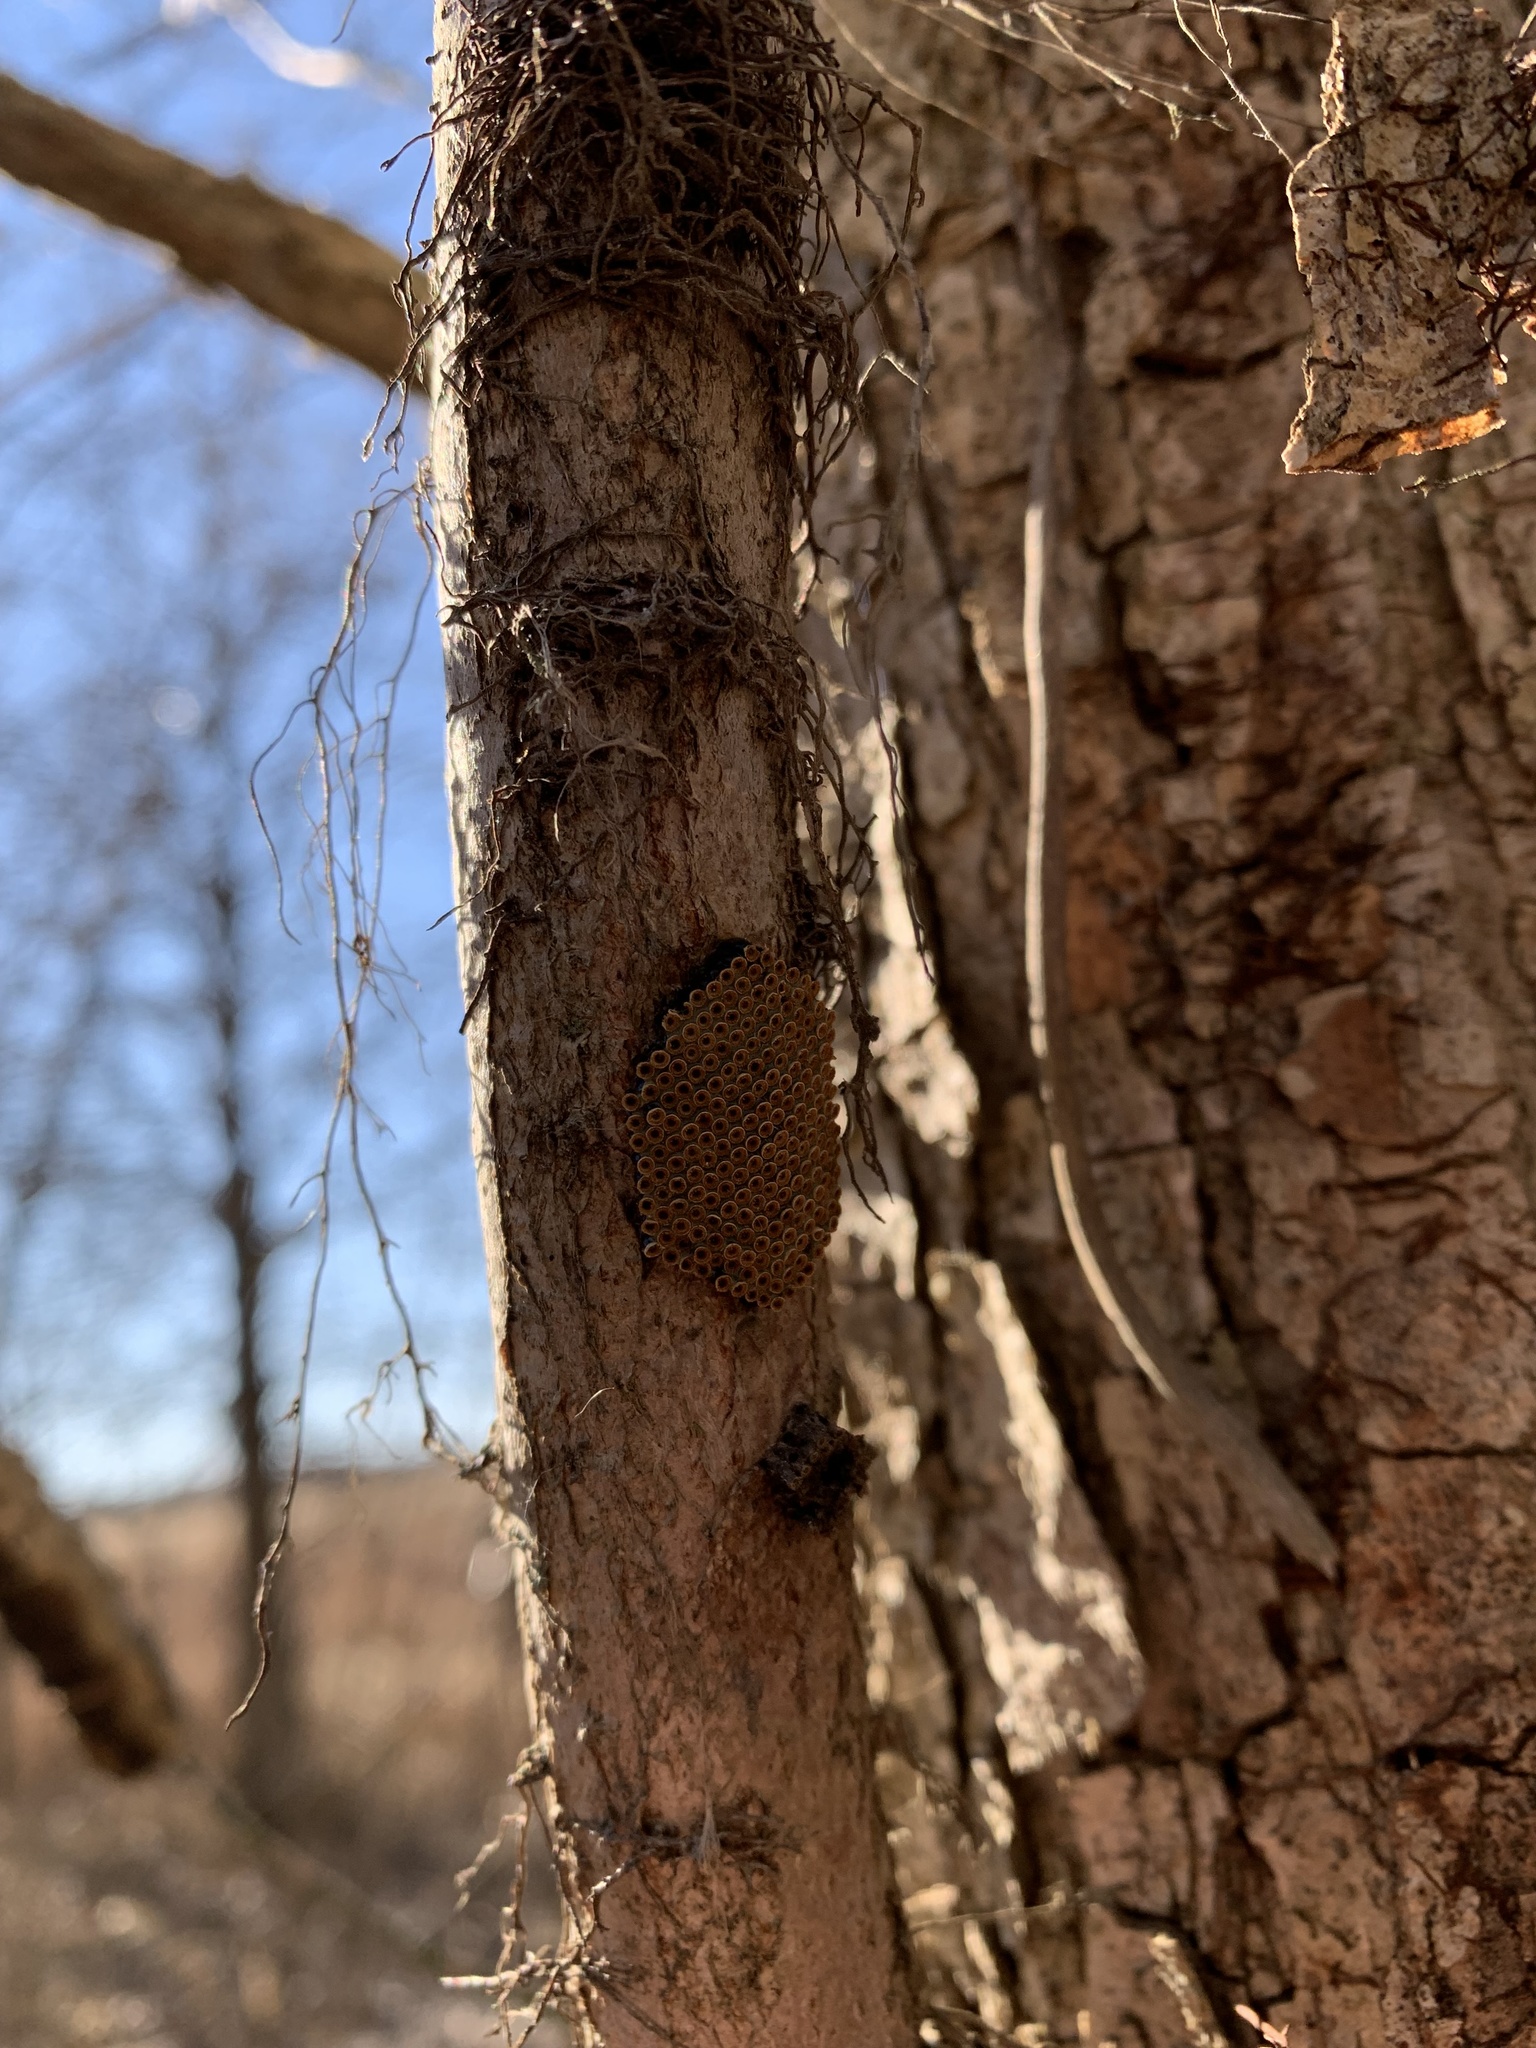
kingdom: Animalia
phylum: Arthropoda
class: Insecta
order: Hemiptera
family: Reduviidae
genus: Arilus
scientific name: Arilus cristatus
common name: North american wheel bug
